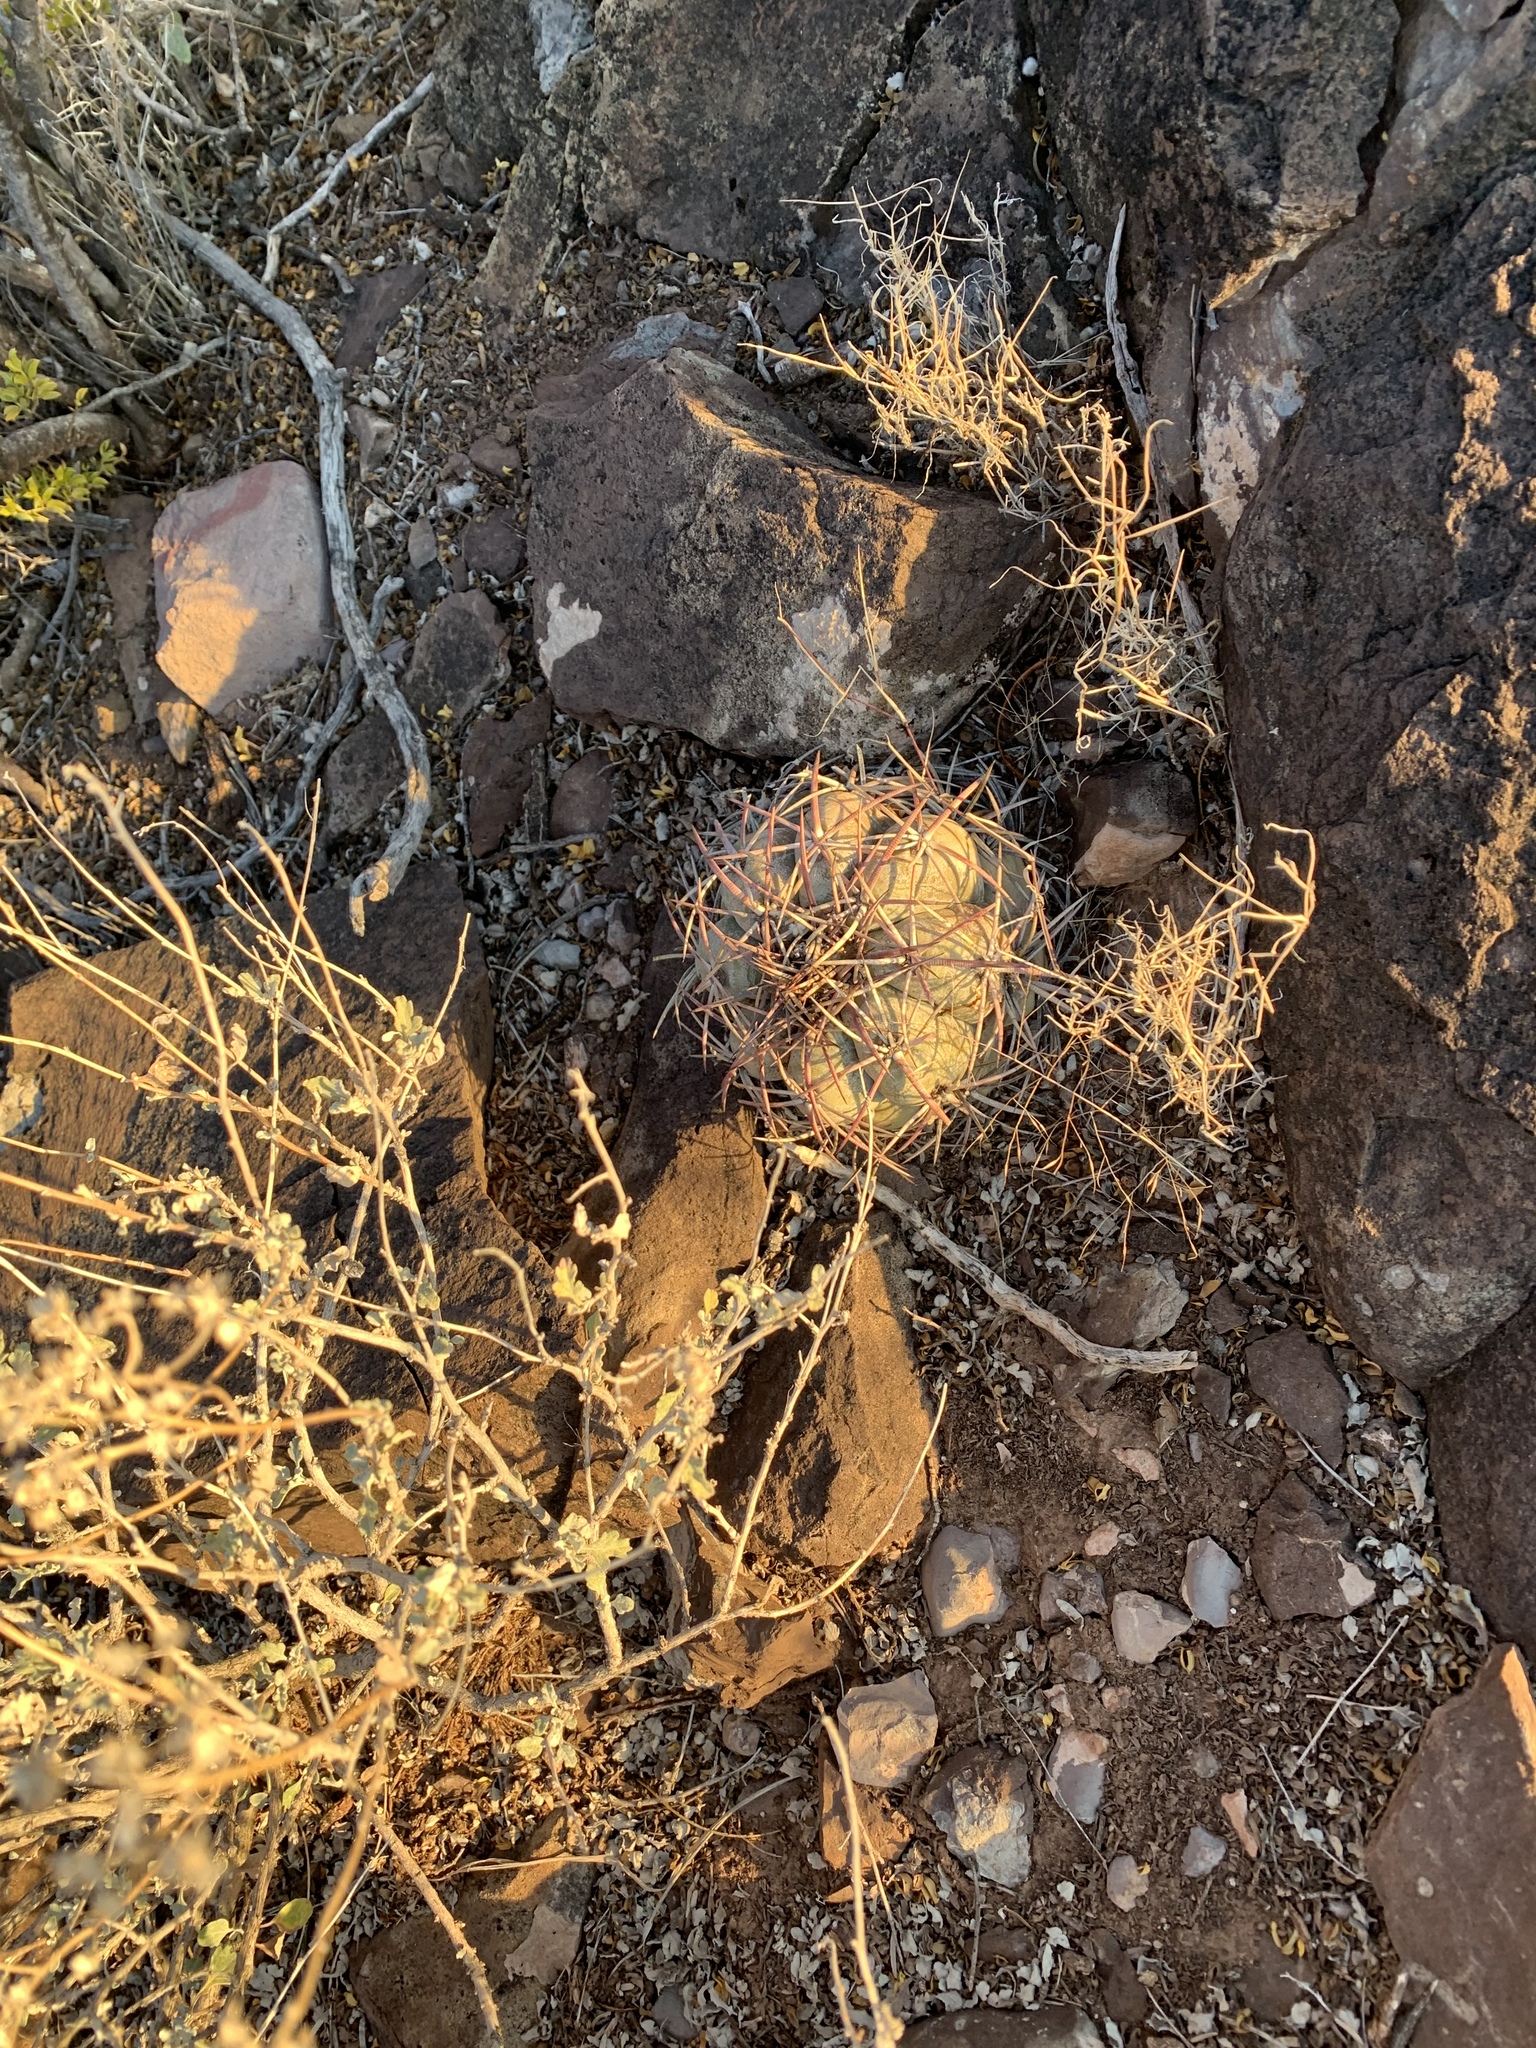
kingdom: Plantae
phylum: Tracheophyta
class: Magnoliopsida
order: Caryophyllales
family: Cactaceae
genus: Echinocactus
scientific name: Echinocactus horizonthalonius
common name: Devilshead
